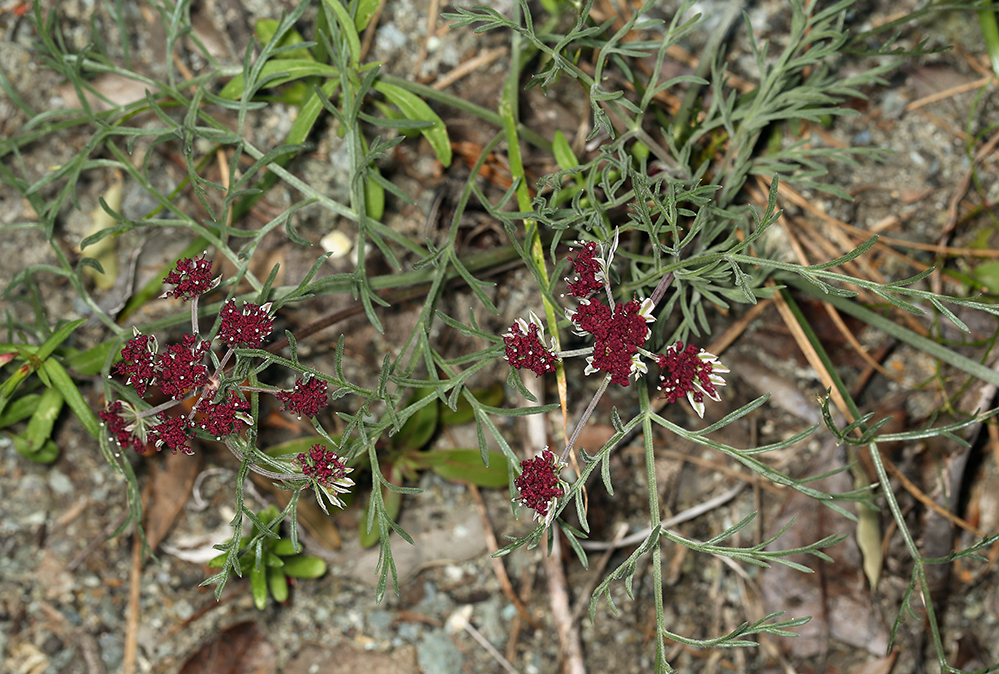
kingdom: Plantae
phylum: Tracheophyta
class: Magnoliopsida
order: Apiales
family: Apiaceae
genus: Lomatium
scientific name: Lomatium hooveri
